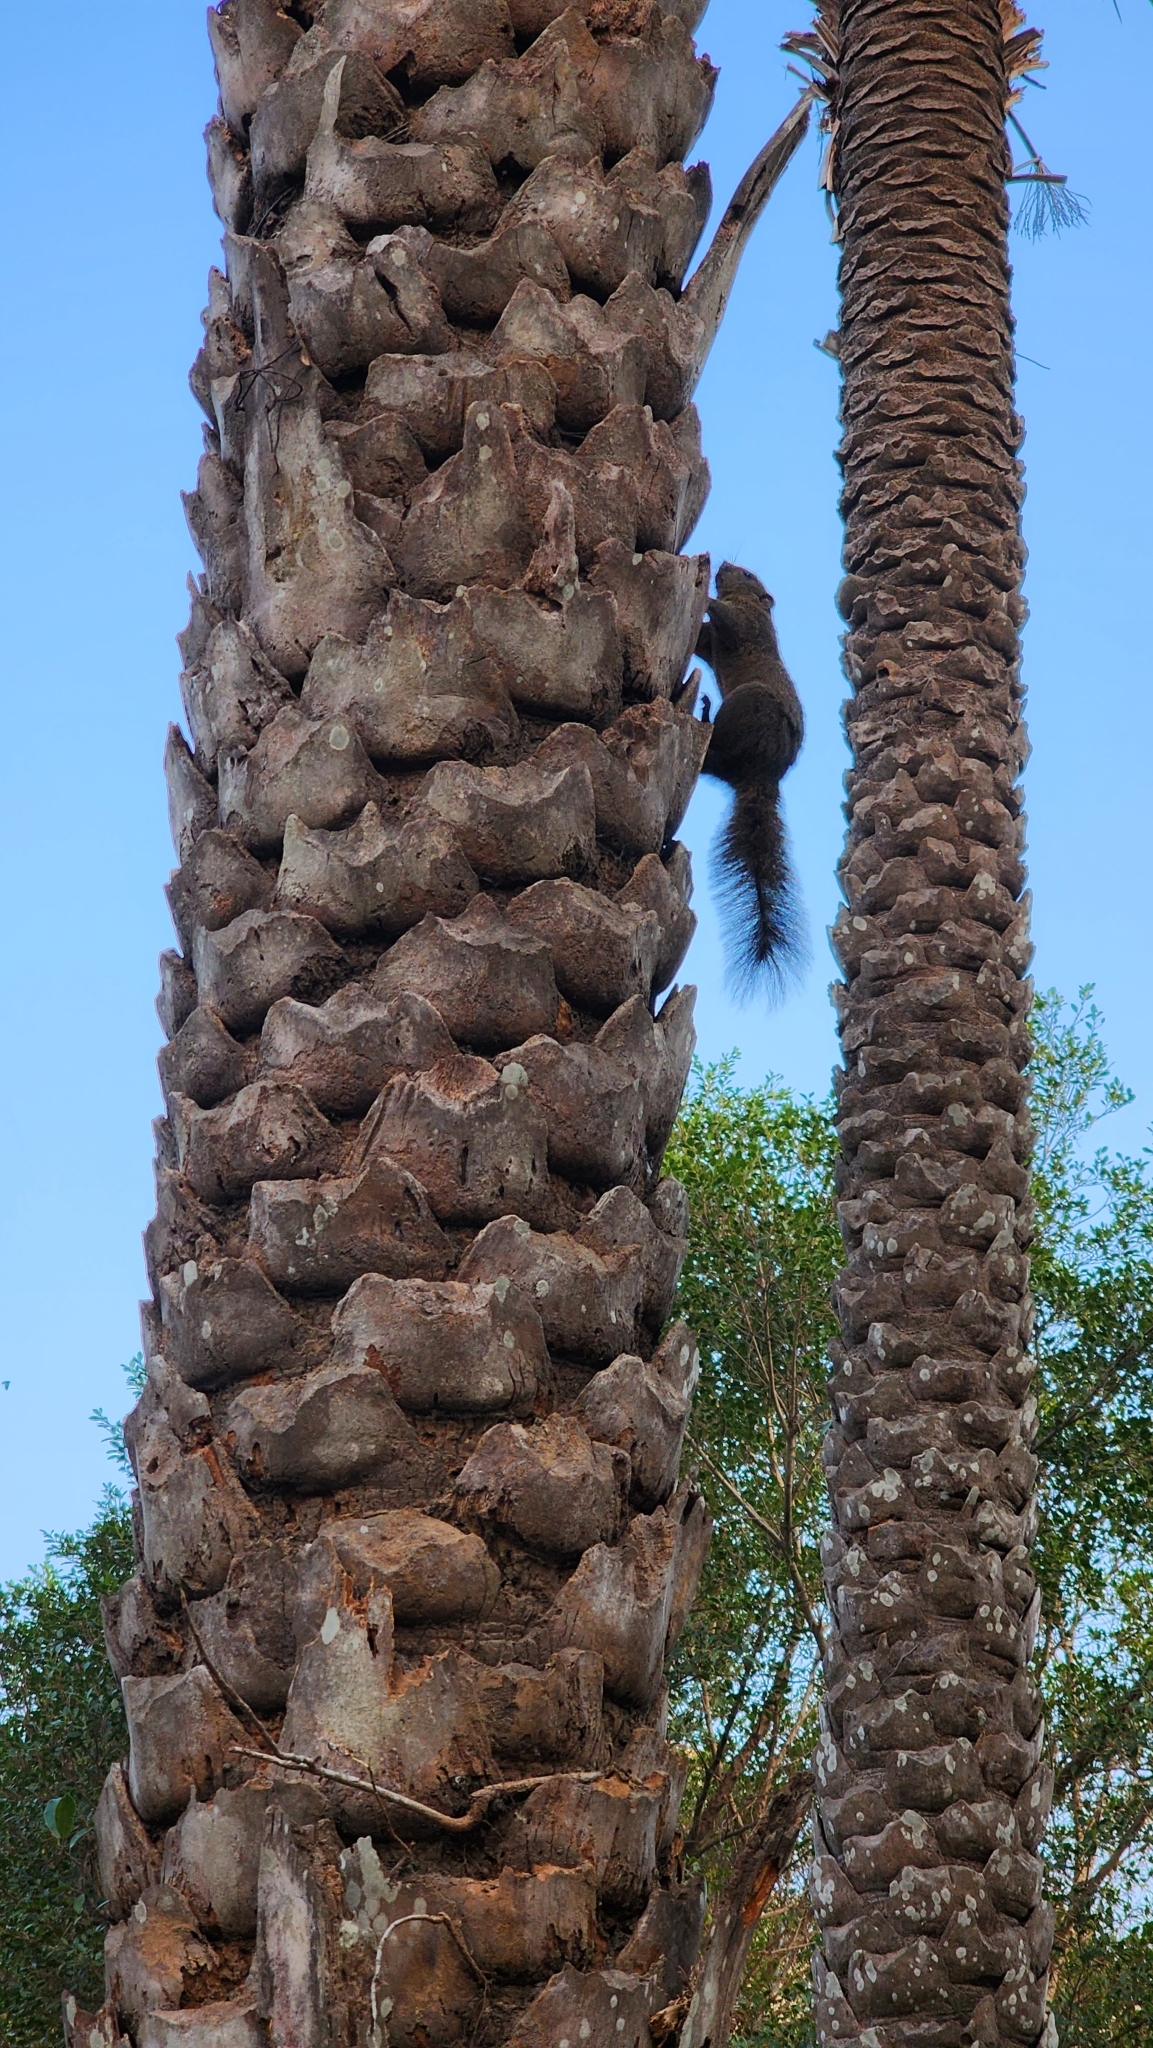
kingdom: Animalia
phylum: Chordata
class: Mammalia
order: Rodentia
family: Sciuridae
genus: Callosciurus
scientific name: Callosciurus erythraeus
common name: Pallas's squirrel
